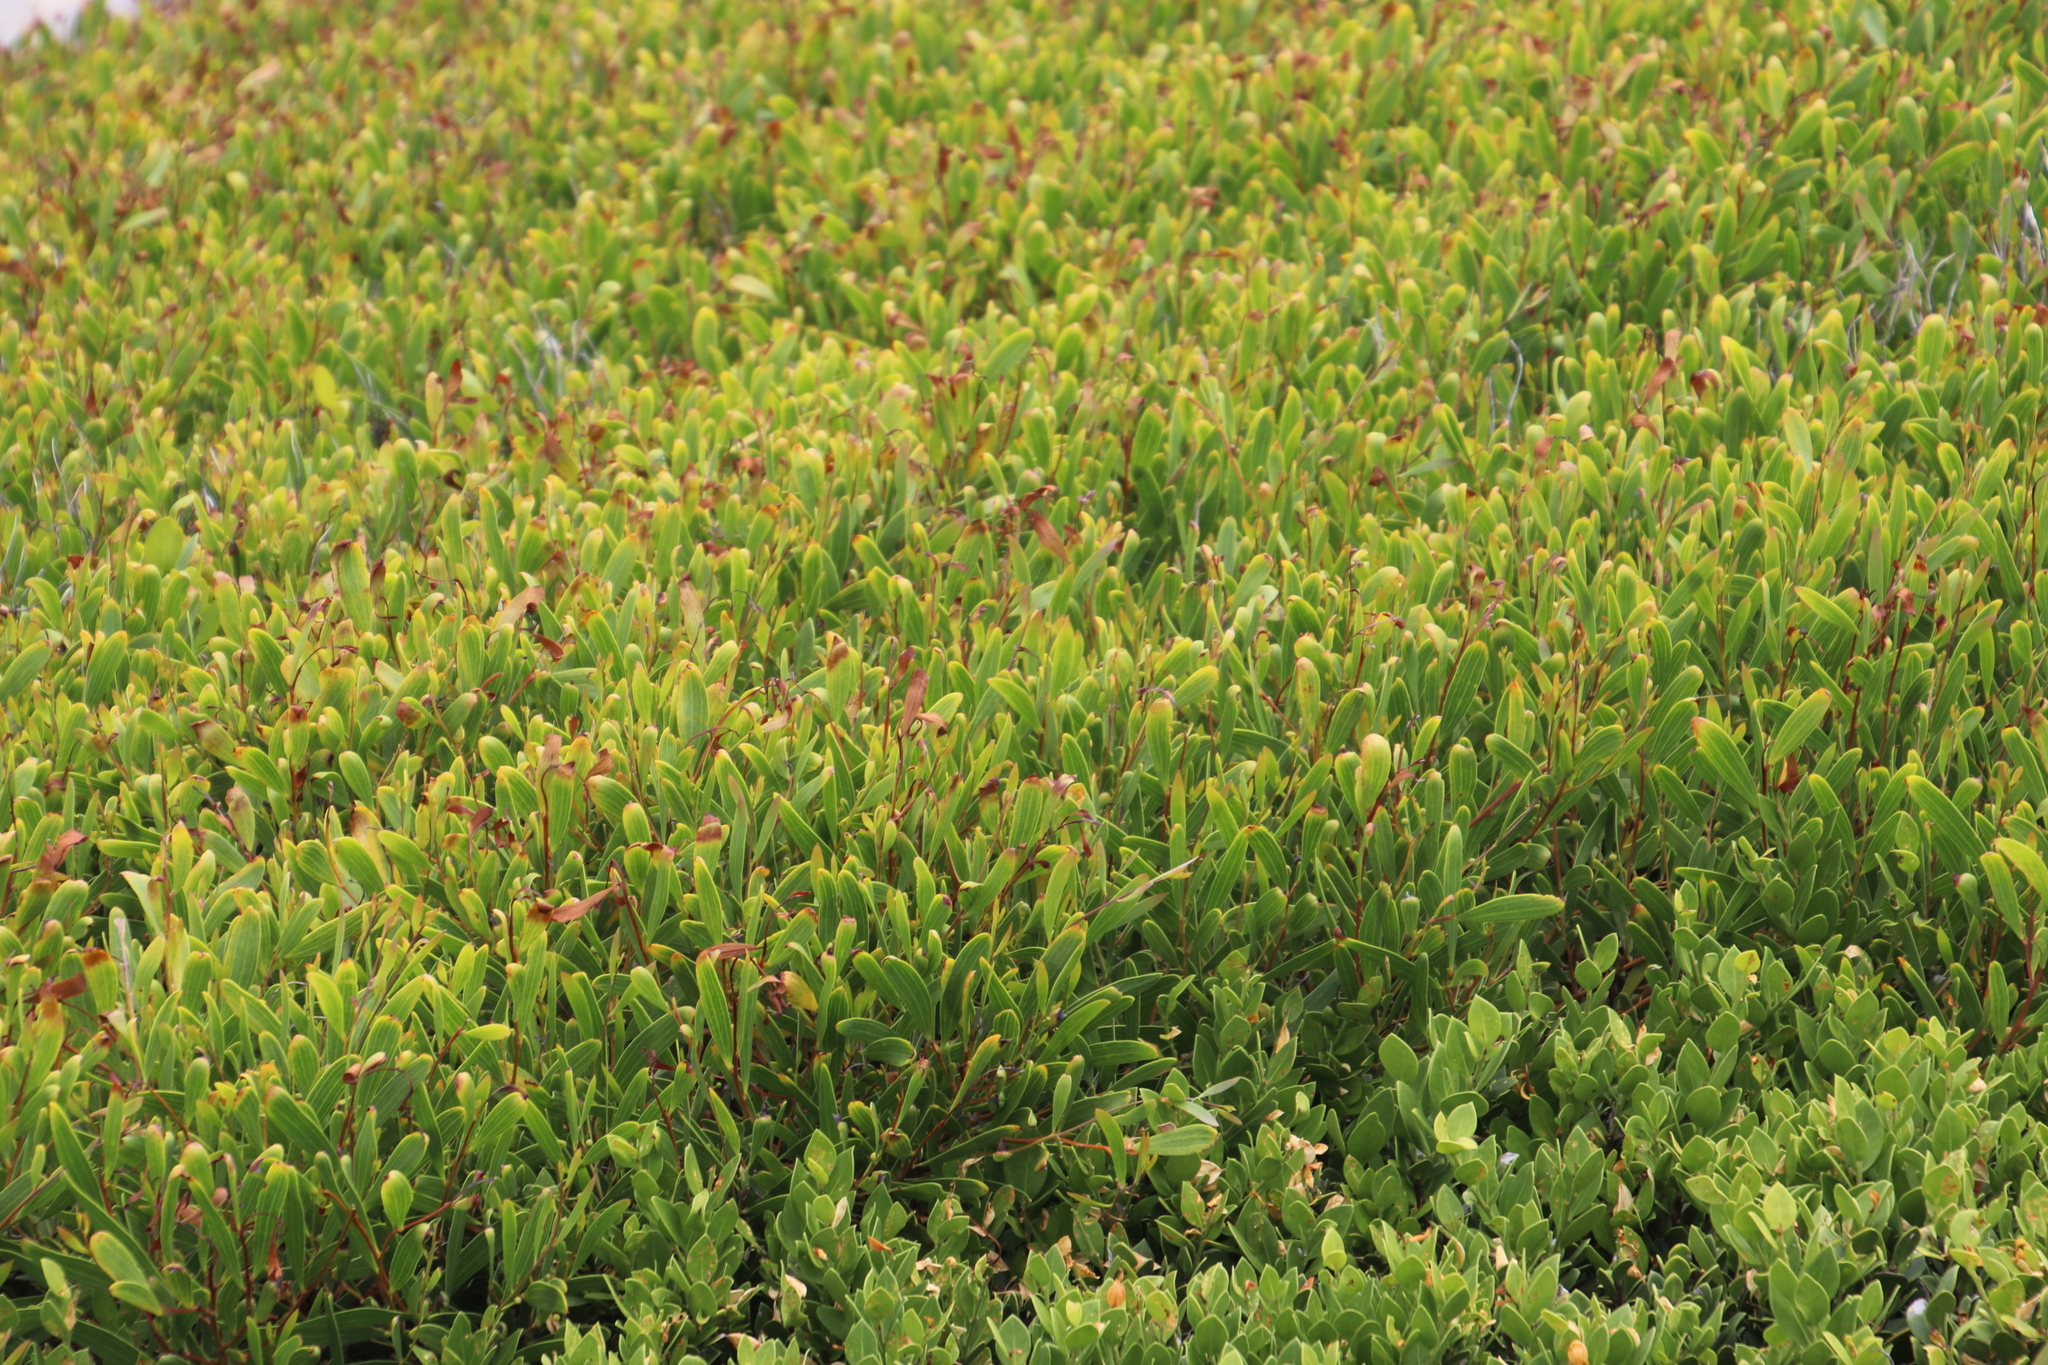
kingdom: Plantae
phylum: Tracheophyta
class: Magnoliopsida
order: Fabales
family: Fabaceae
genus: Acacia
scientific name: Acacia cyclops
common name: Coastal wattle
